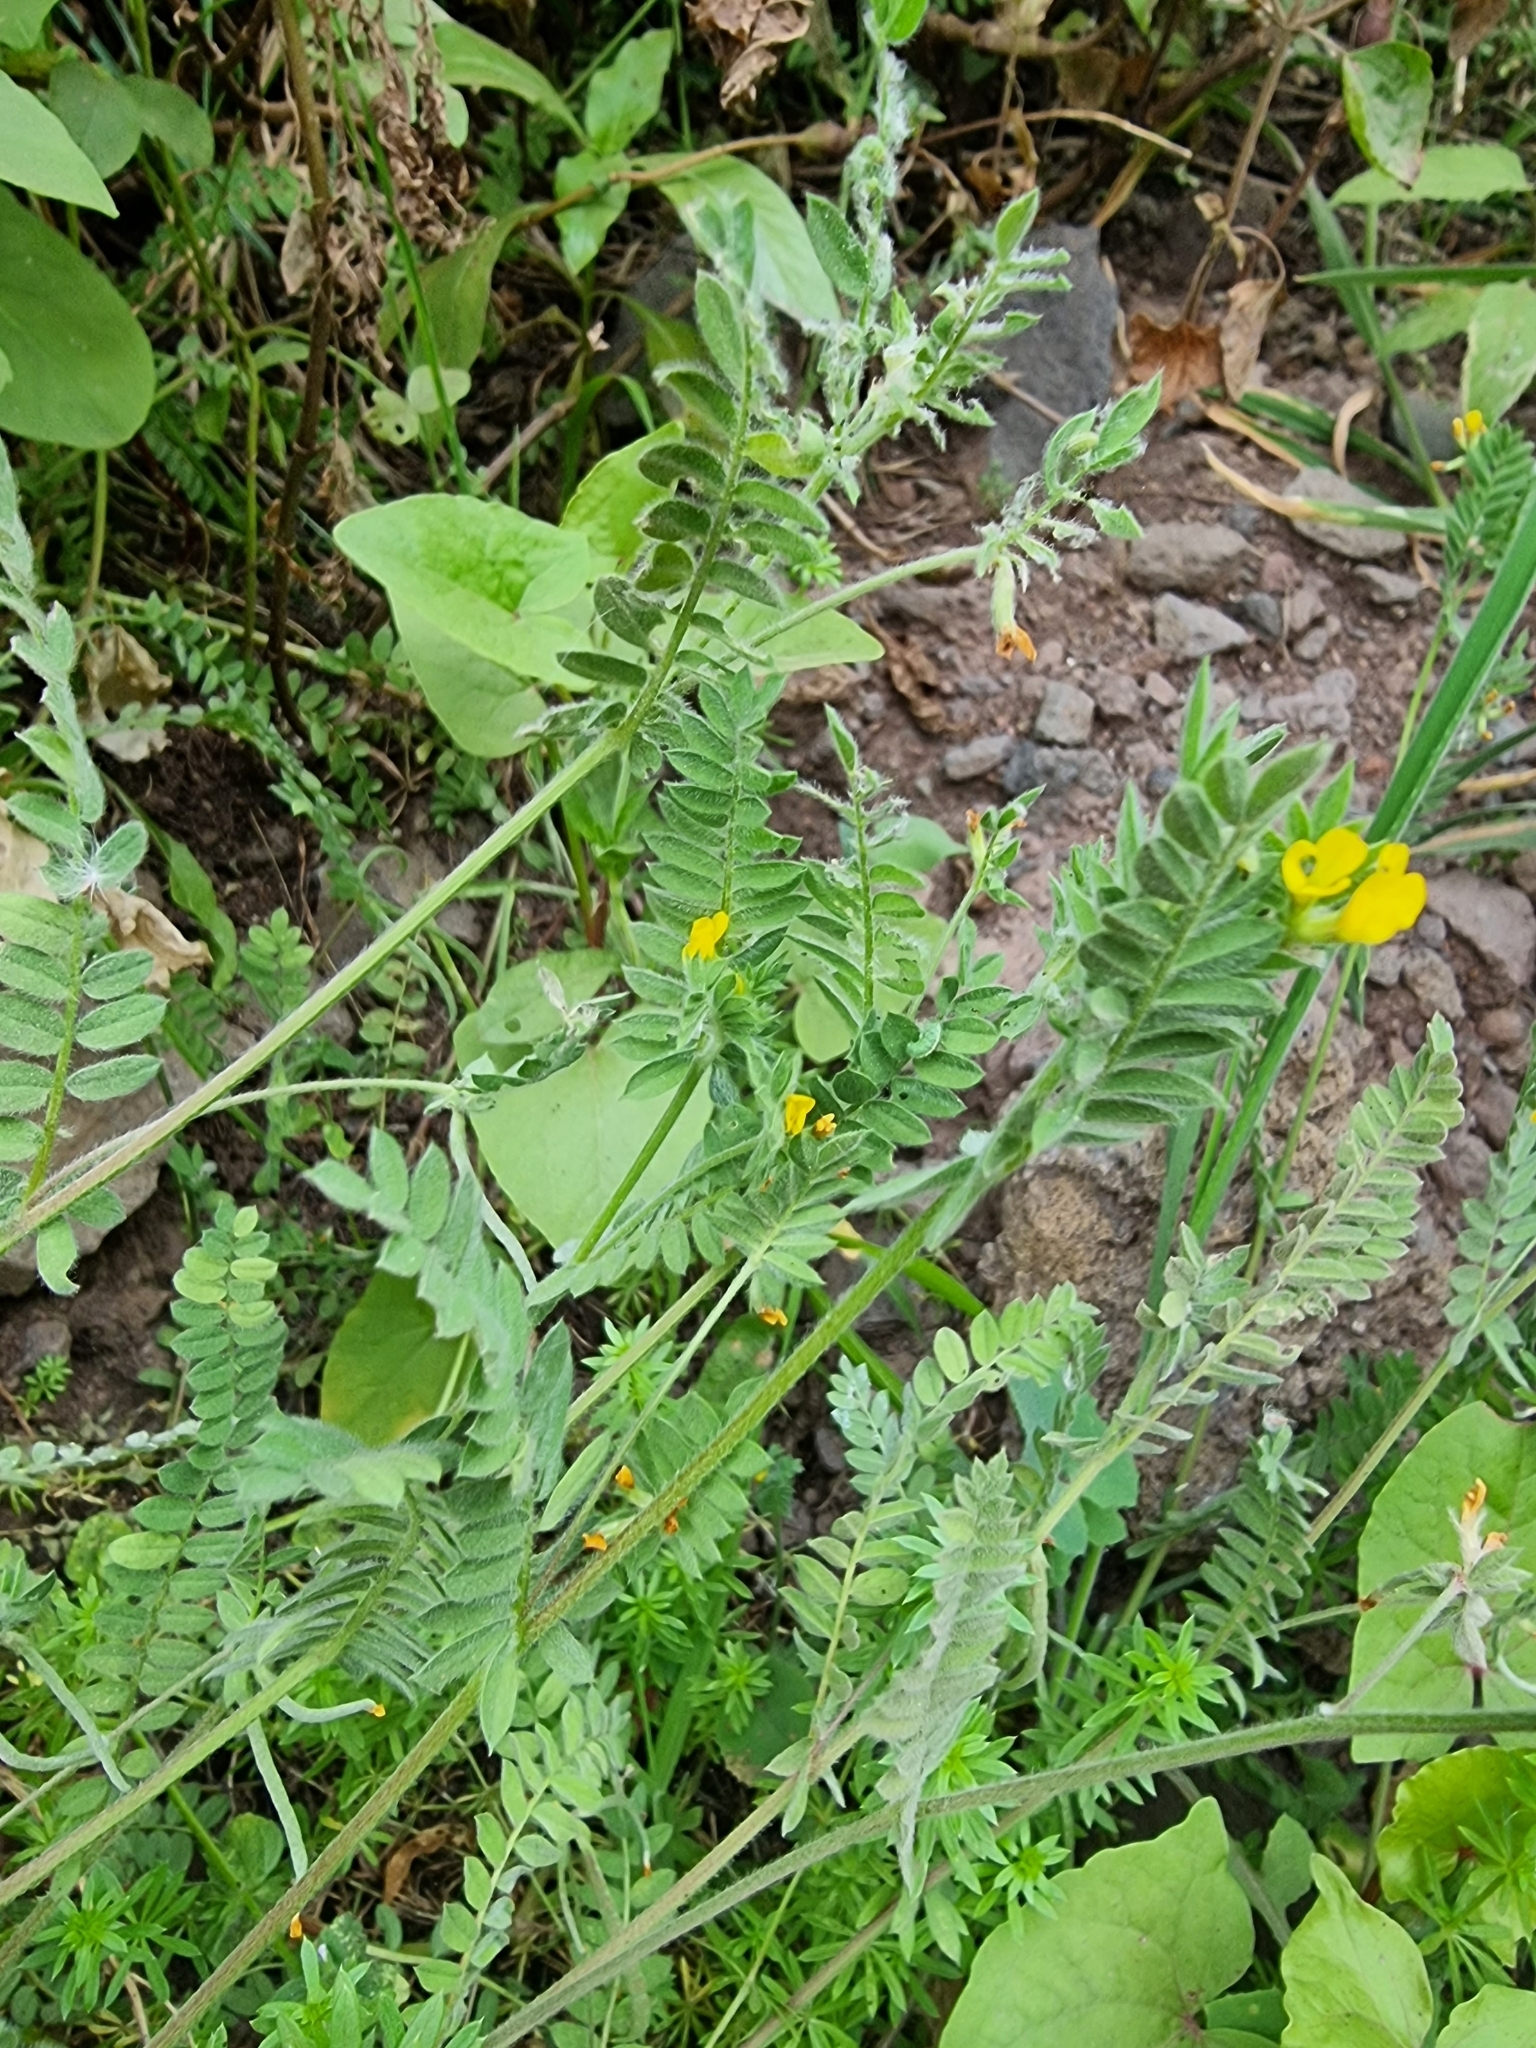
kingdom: Plantae
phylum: Tracheophyta
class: Magnoliopsida
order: Fabales
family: Fabaceae
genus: Ornithopus
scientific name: Ornithopus compressus
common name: Yellow serradella
